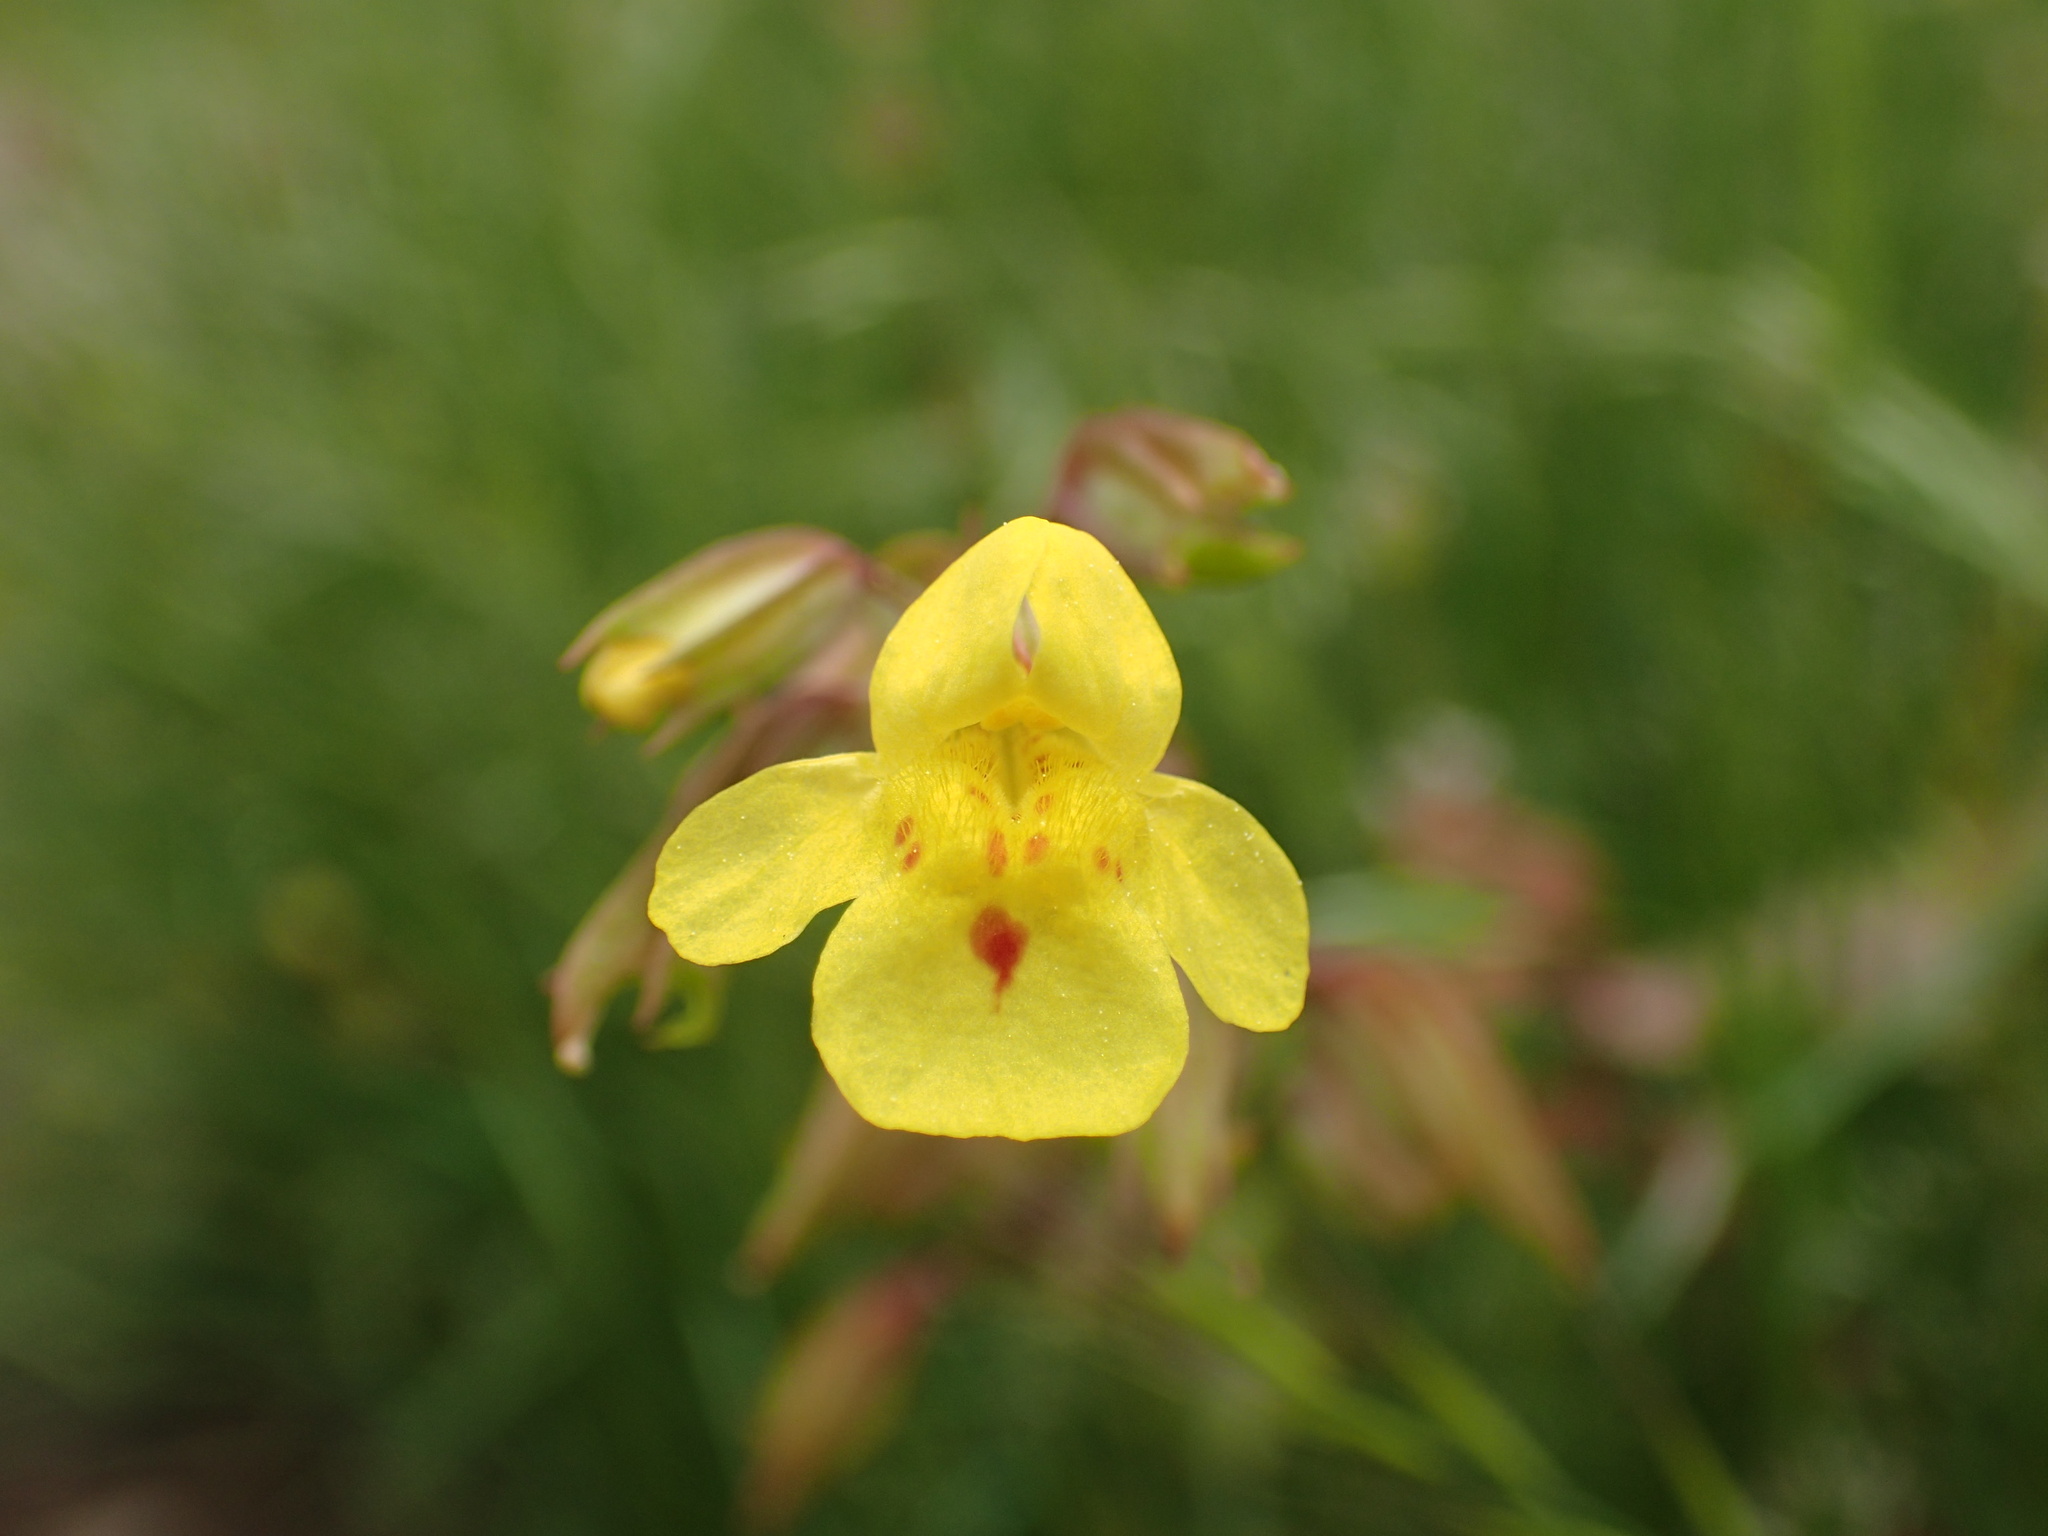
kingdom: Plantae
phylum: Tracheophyta
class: Magnoliopsida
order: Lamiales
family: Phrymaceae
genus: Erythranthe
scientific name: Erythranthe nasuta
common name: Sooke monkeyflower
